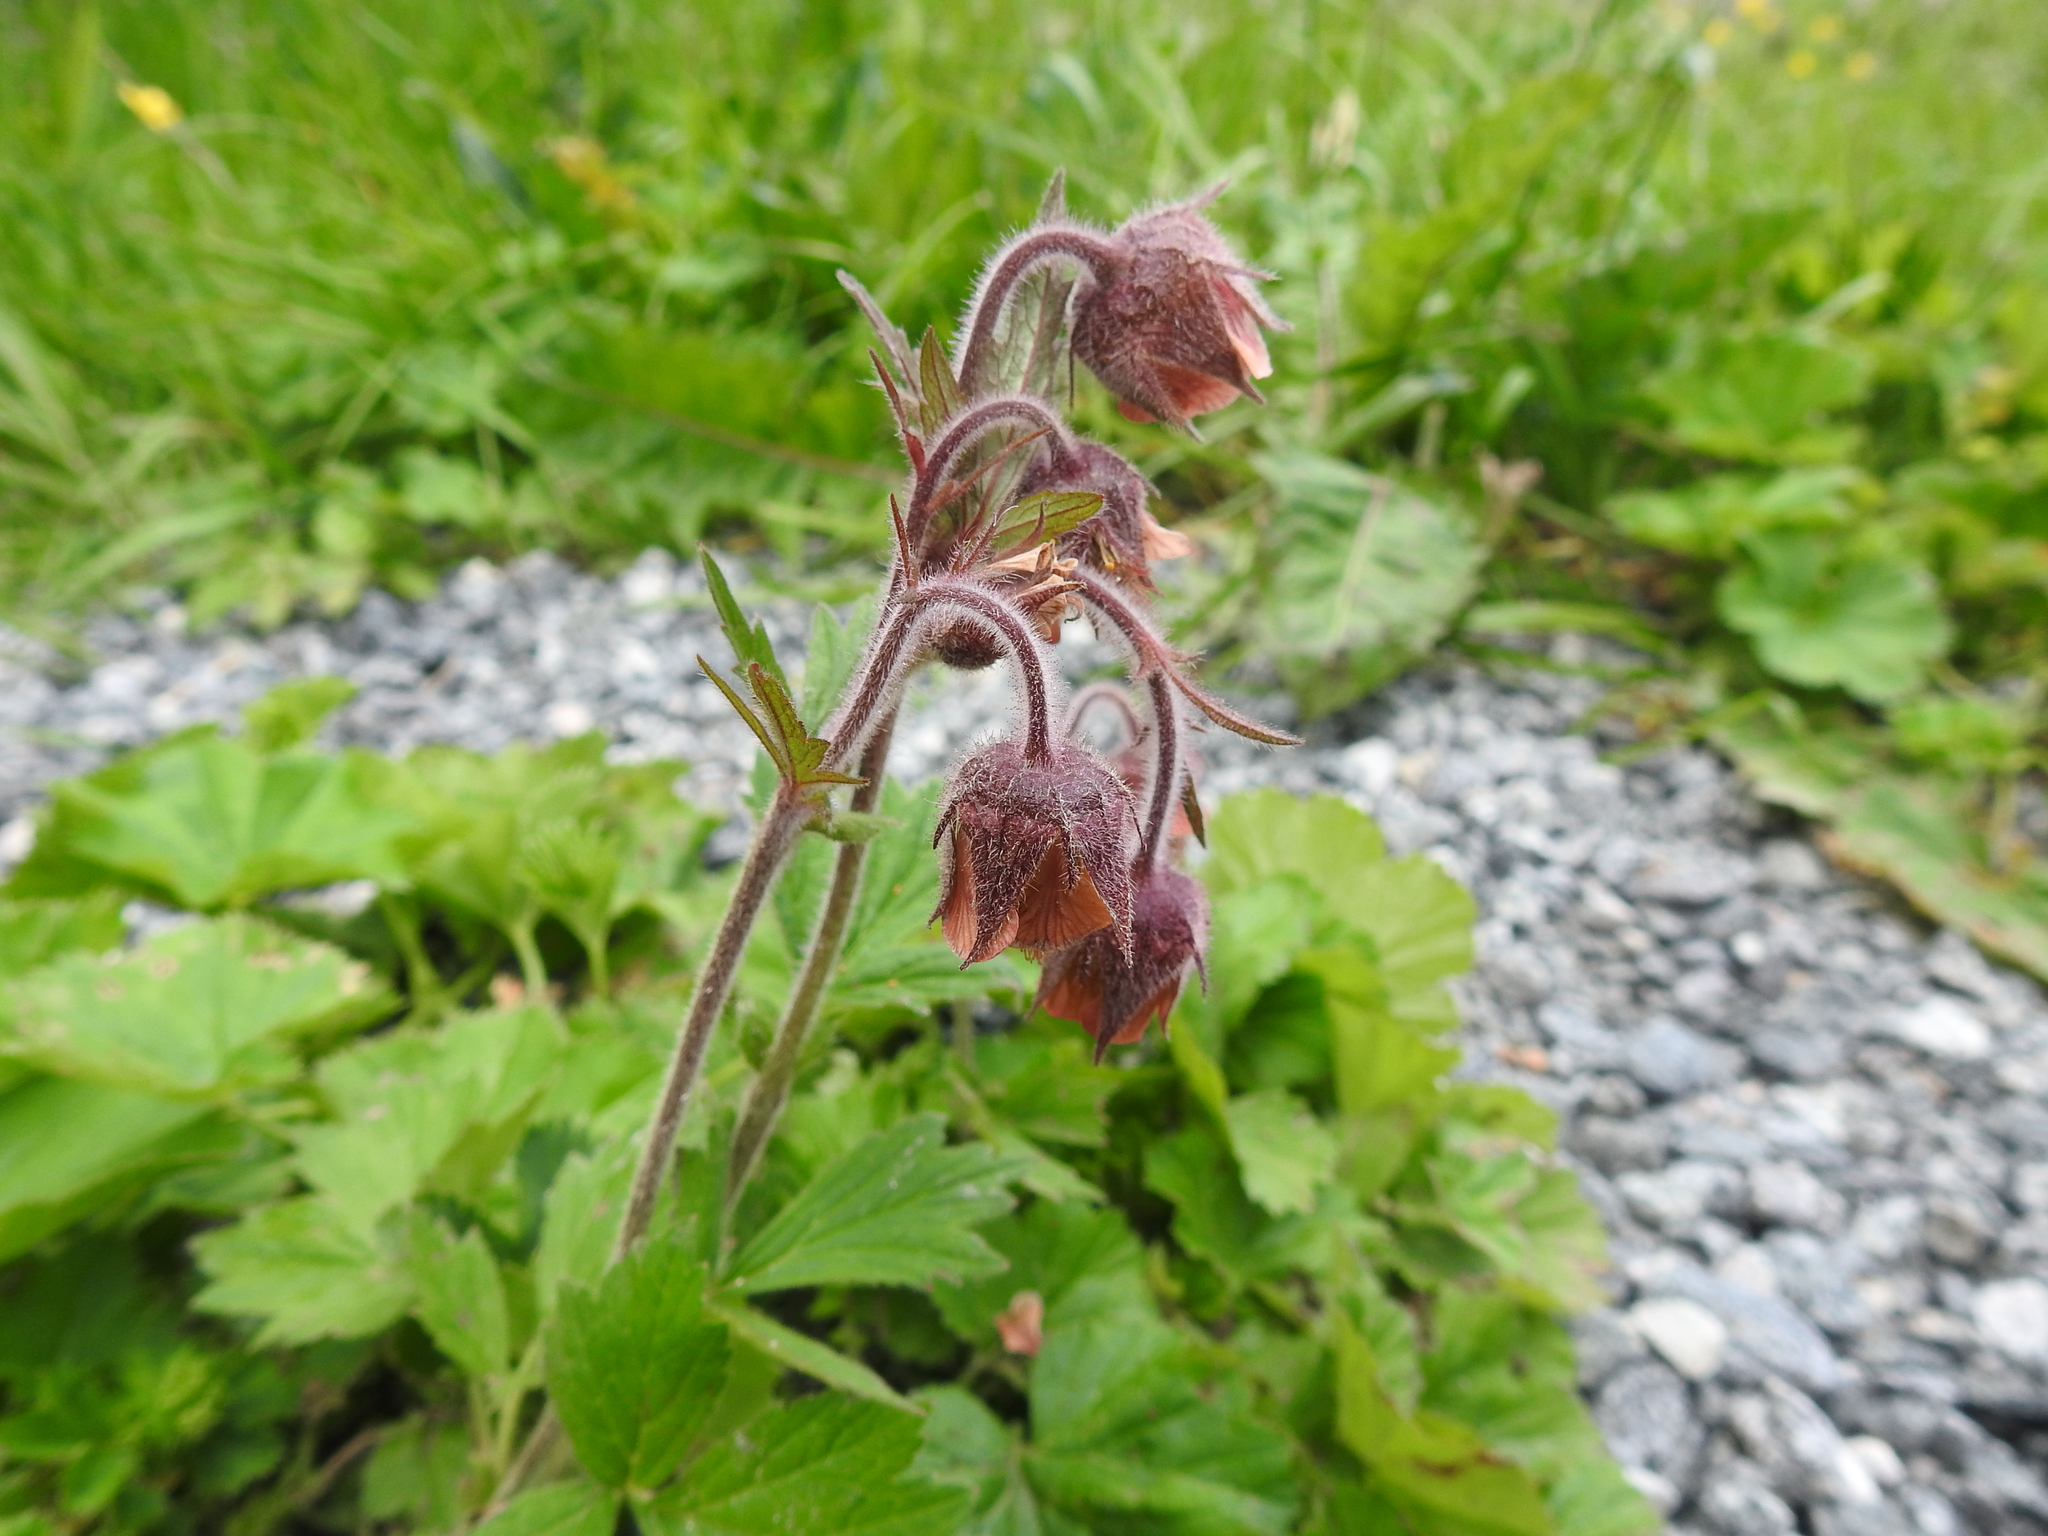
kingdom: Plantae
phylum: Tracheophyta
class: Magnoliopsida
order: Rosales
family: Rosaceae
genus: Geum
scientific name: Geum rivale
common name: Water avens
